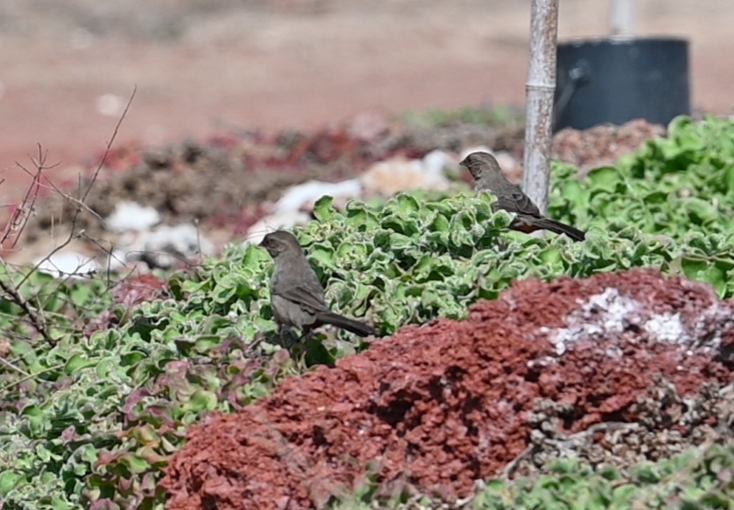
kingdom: Animalia
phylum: Chordata
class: Aves
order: Passeriformes
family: Passerellidae
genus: Melozone
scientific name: Melozone crissalis
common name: California towhee
